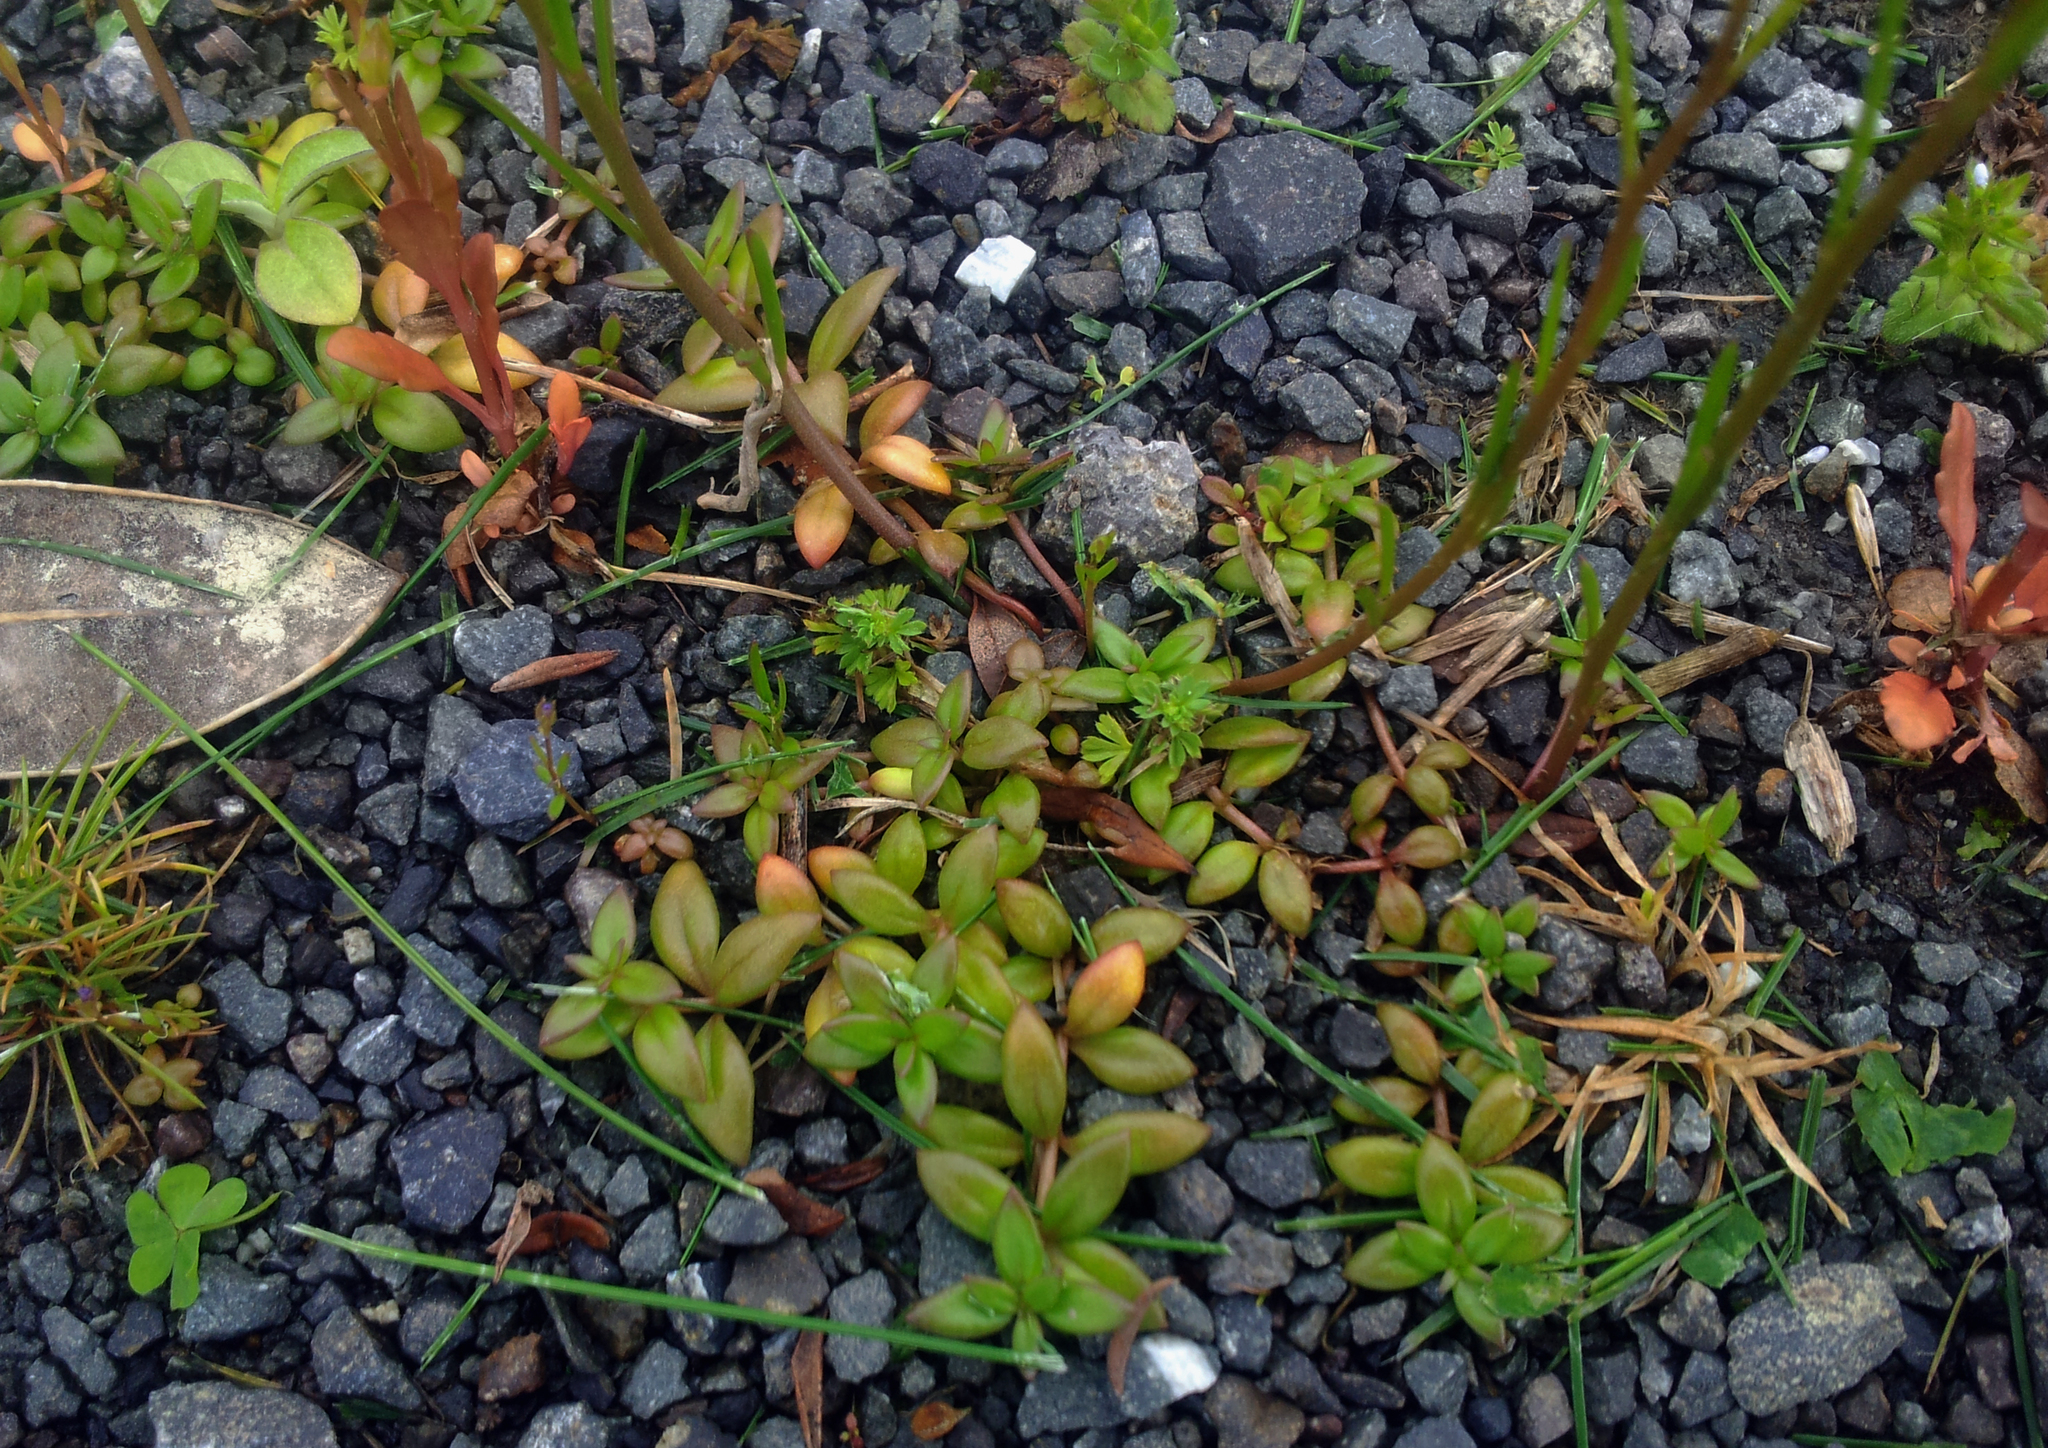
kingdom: Plantae
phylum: Tracheophyta
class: Magnoliopsida
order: Lamiales
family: Plantaginaceae
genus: Linaria
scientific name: Linaria pelisseriana
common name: Jersey toadflax
